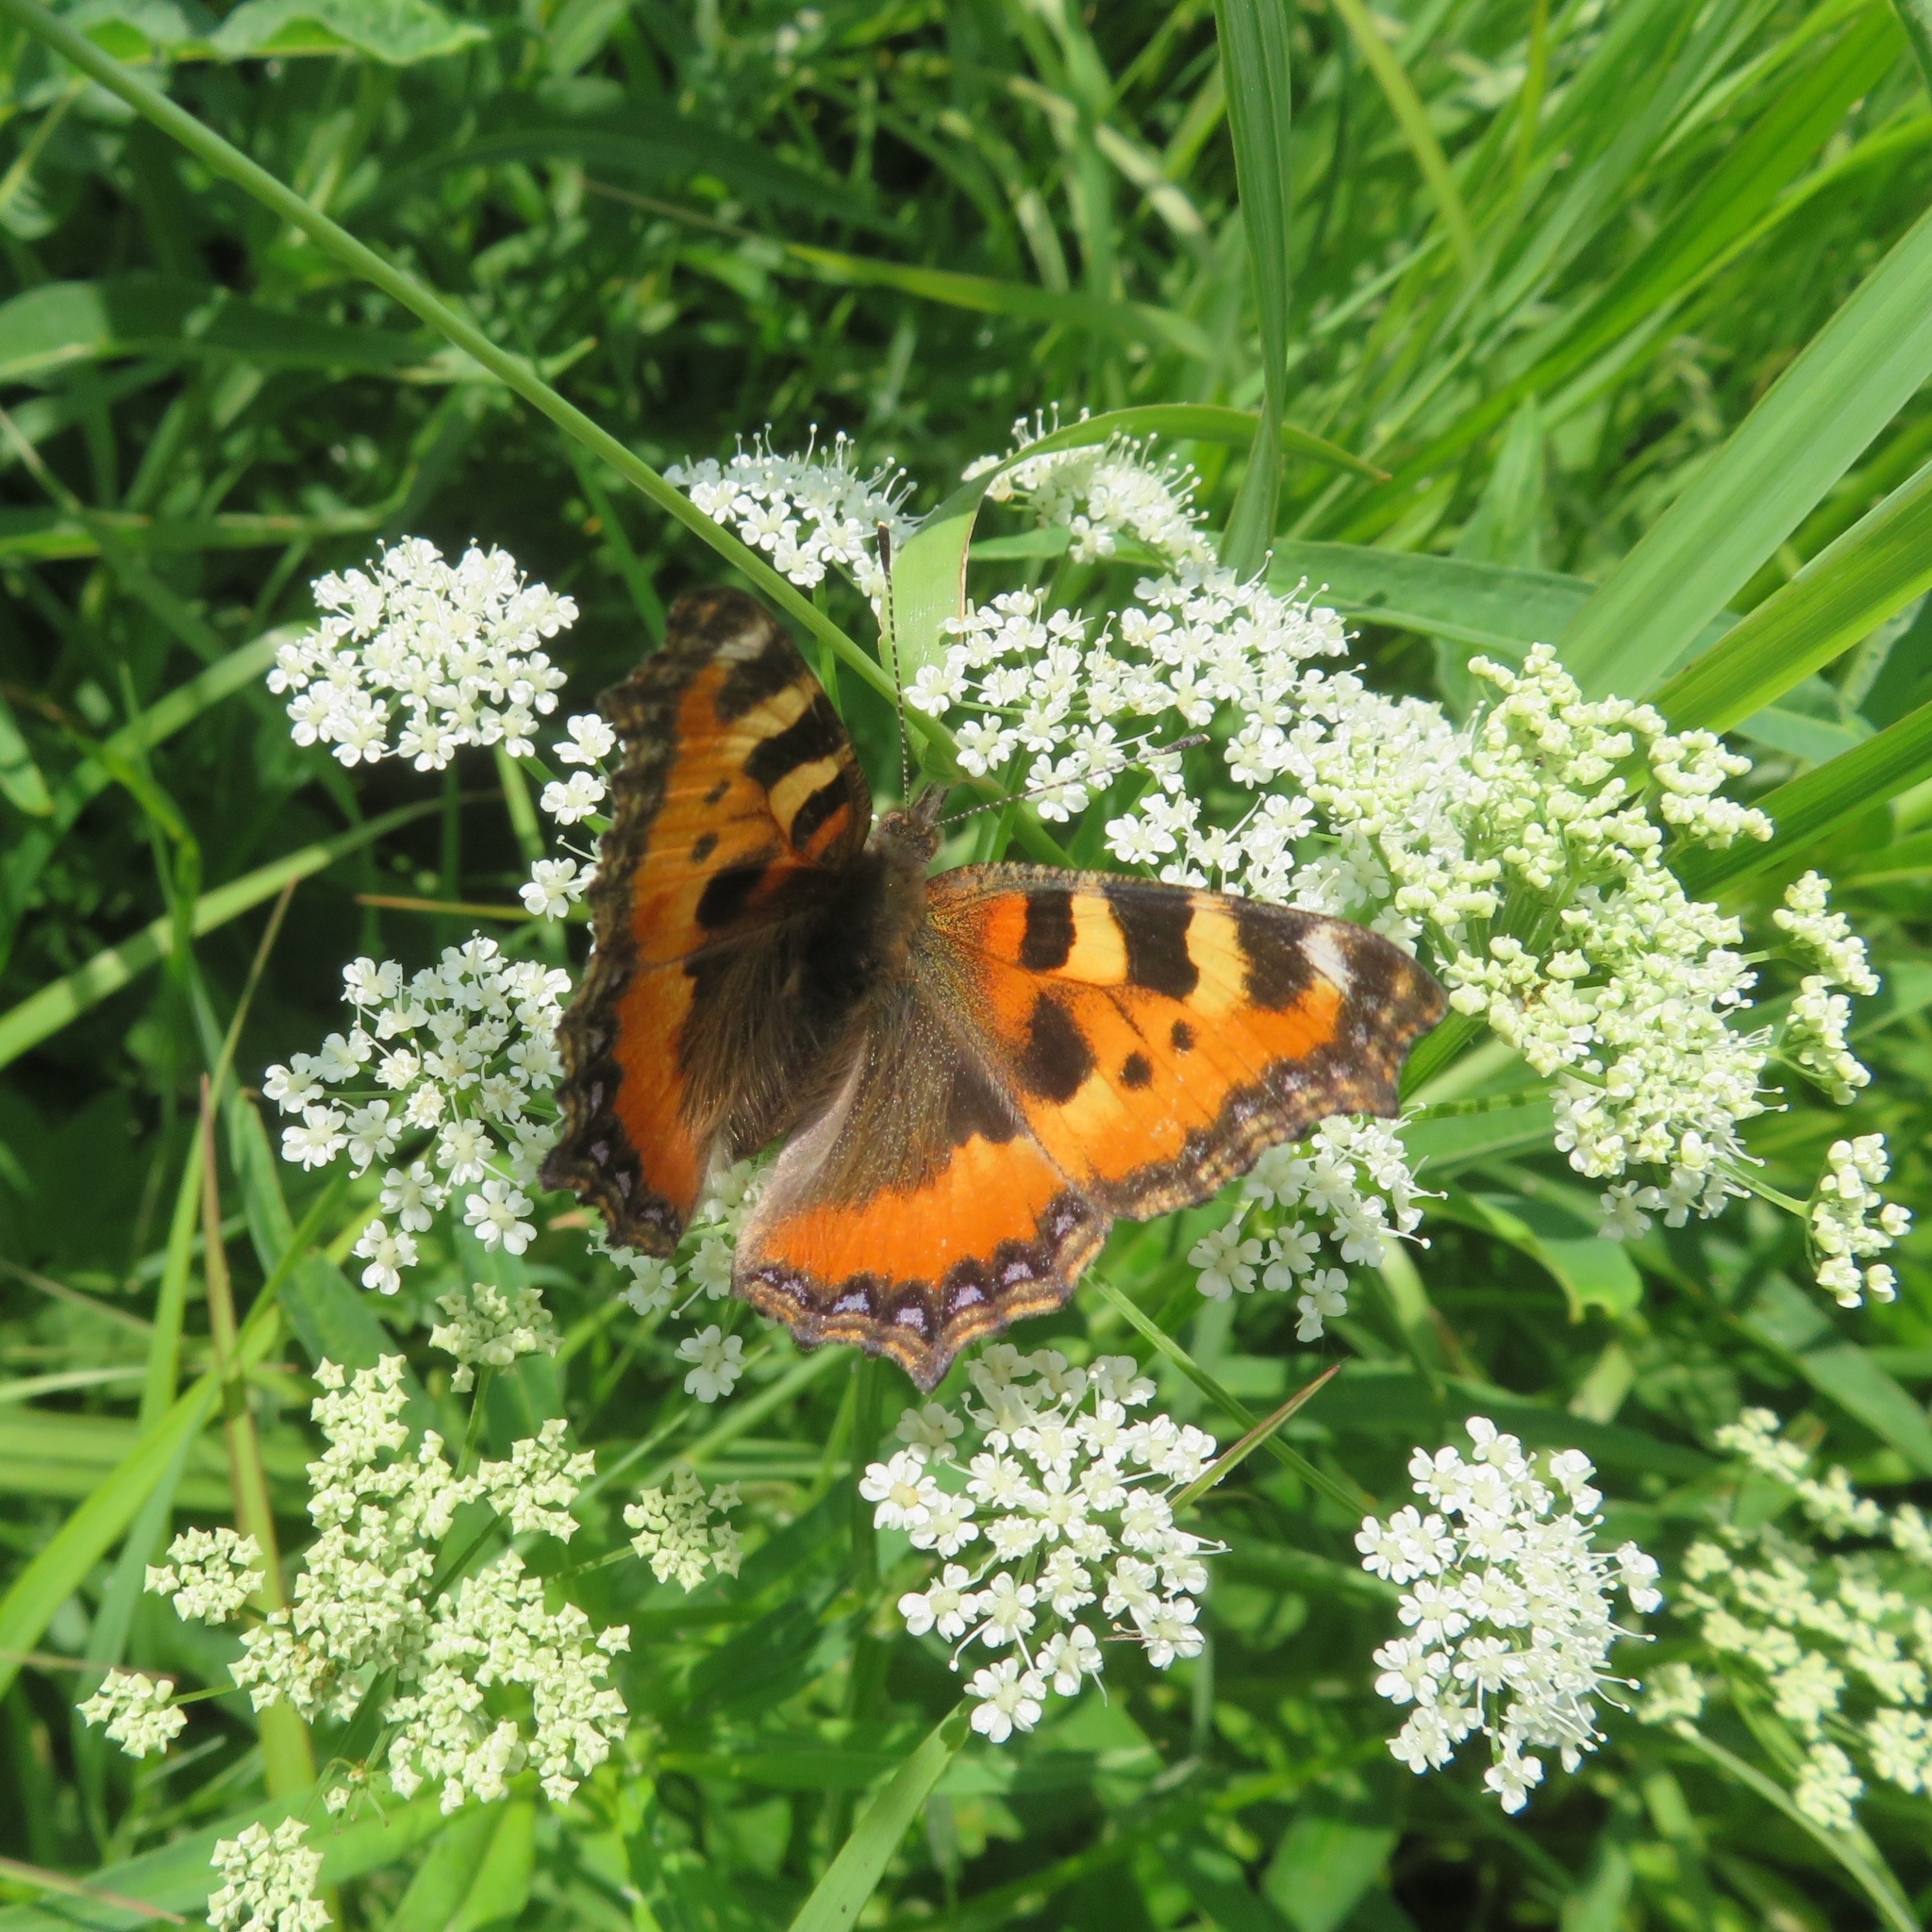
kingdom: Animalia
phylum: Arthropoda
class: Insecta
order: Lepidoptera
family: Nymphalidae
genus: Aglais
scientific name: Aglais urticae
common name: Small tortoiseshell
